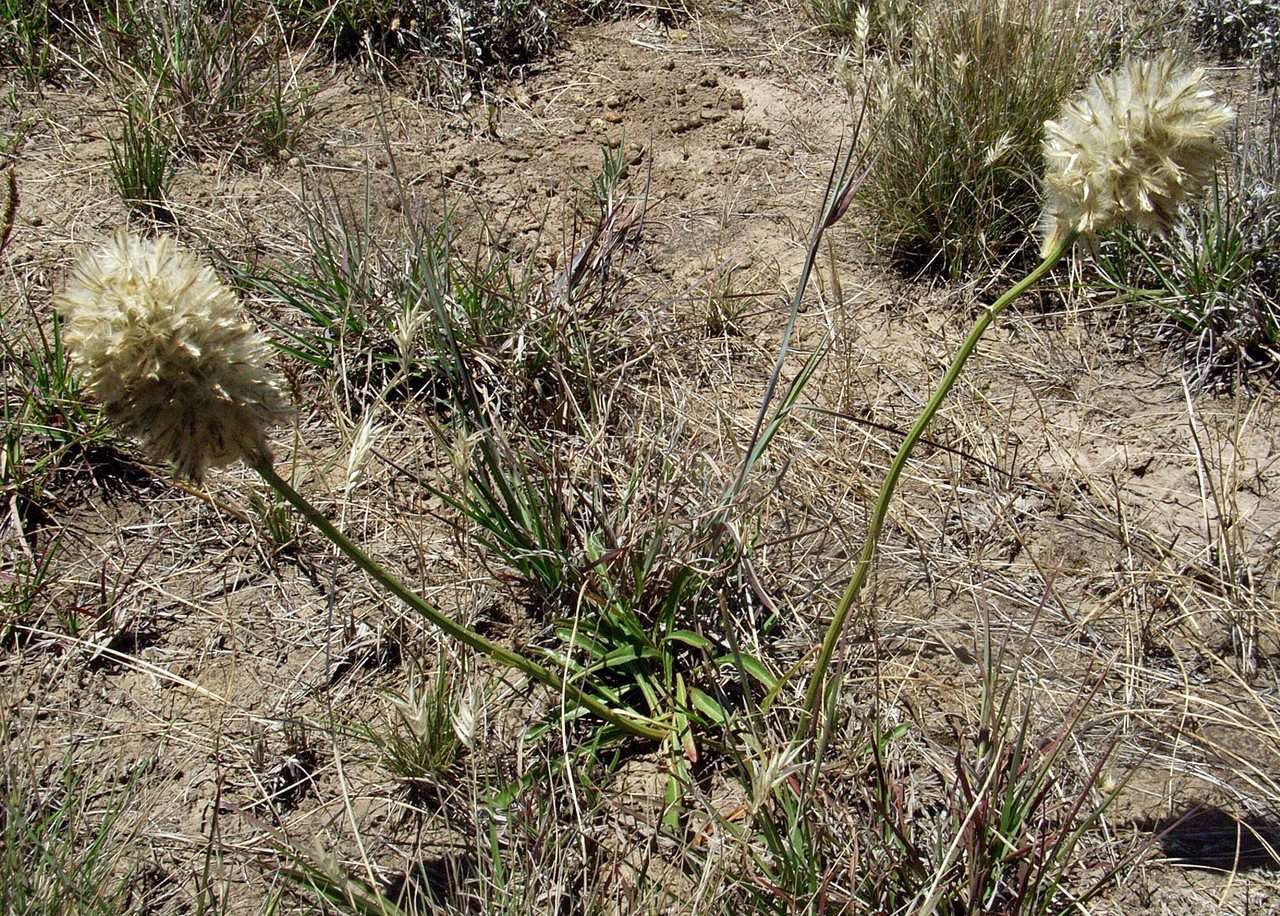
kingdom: Plantae
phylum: Tracheophyta
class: Magnoliopsida
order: Caryophyllales
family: Amaranthaceae
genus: Ptilotus
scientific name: Ptilotus macrocephalus
